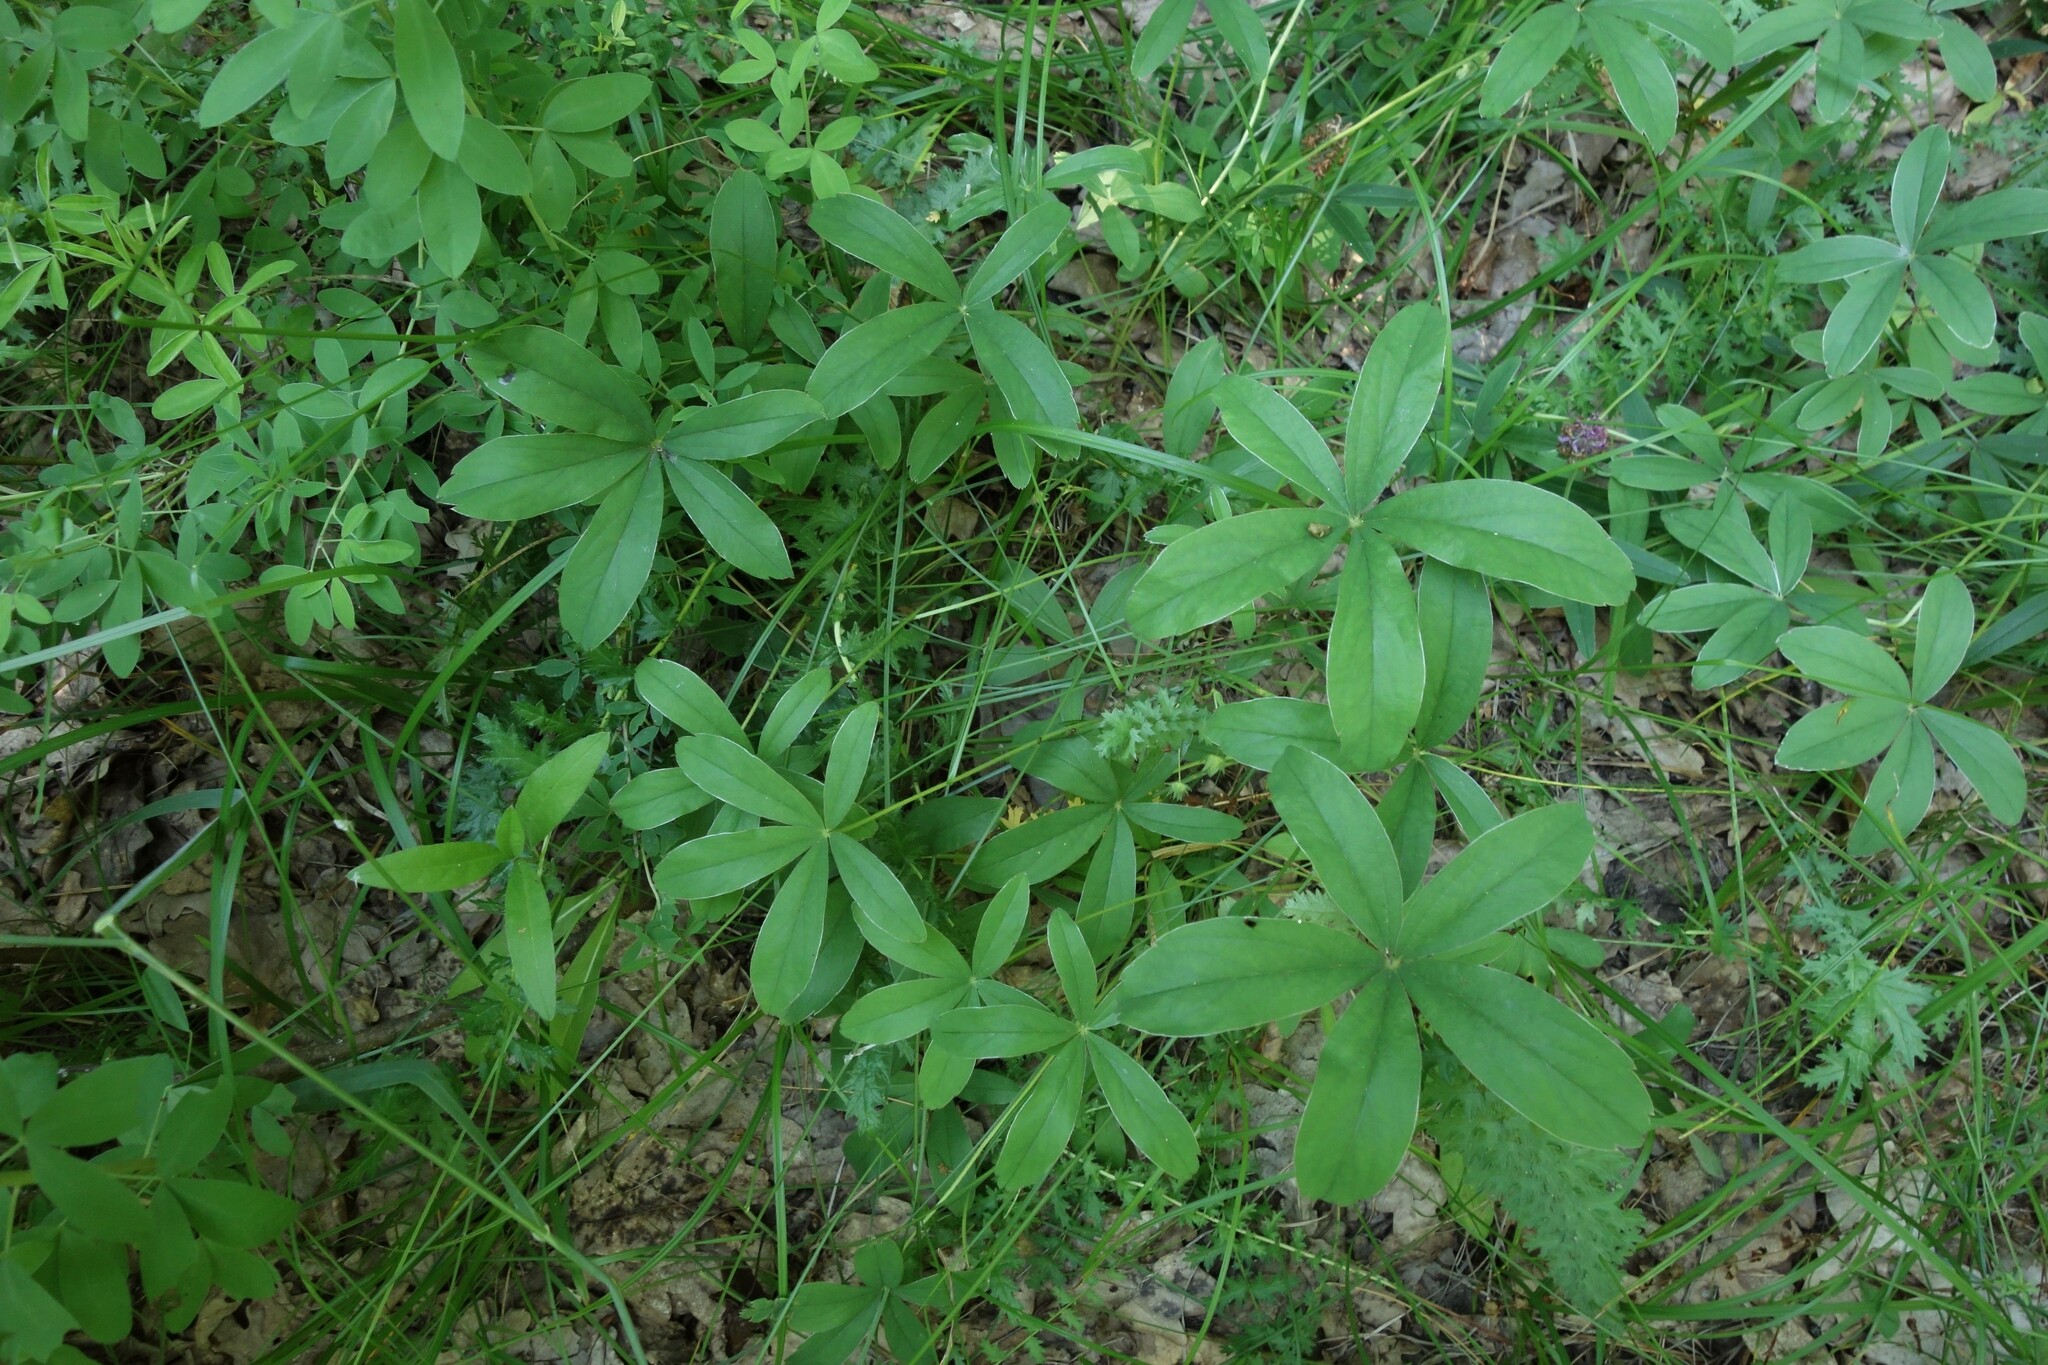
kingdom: Plantae
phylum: Tracheophyta
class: Magnoliopsida
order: Rosales
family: Rosaceae
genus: Potentilla
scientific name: Potentilla alba
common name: White cinquefoil
